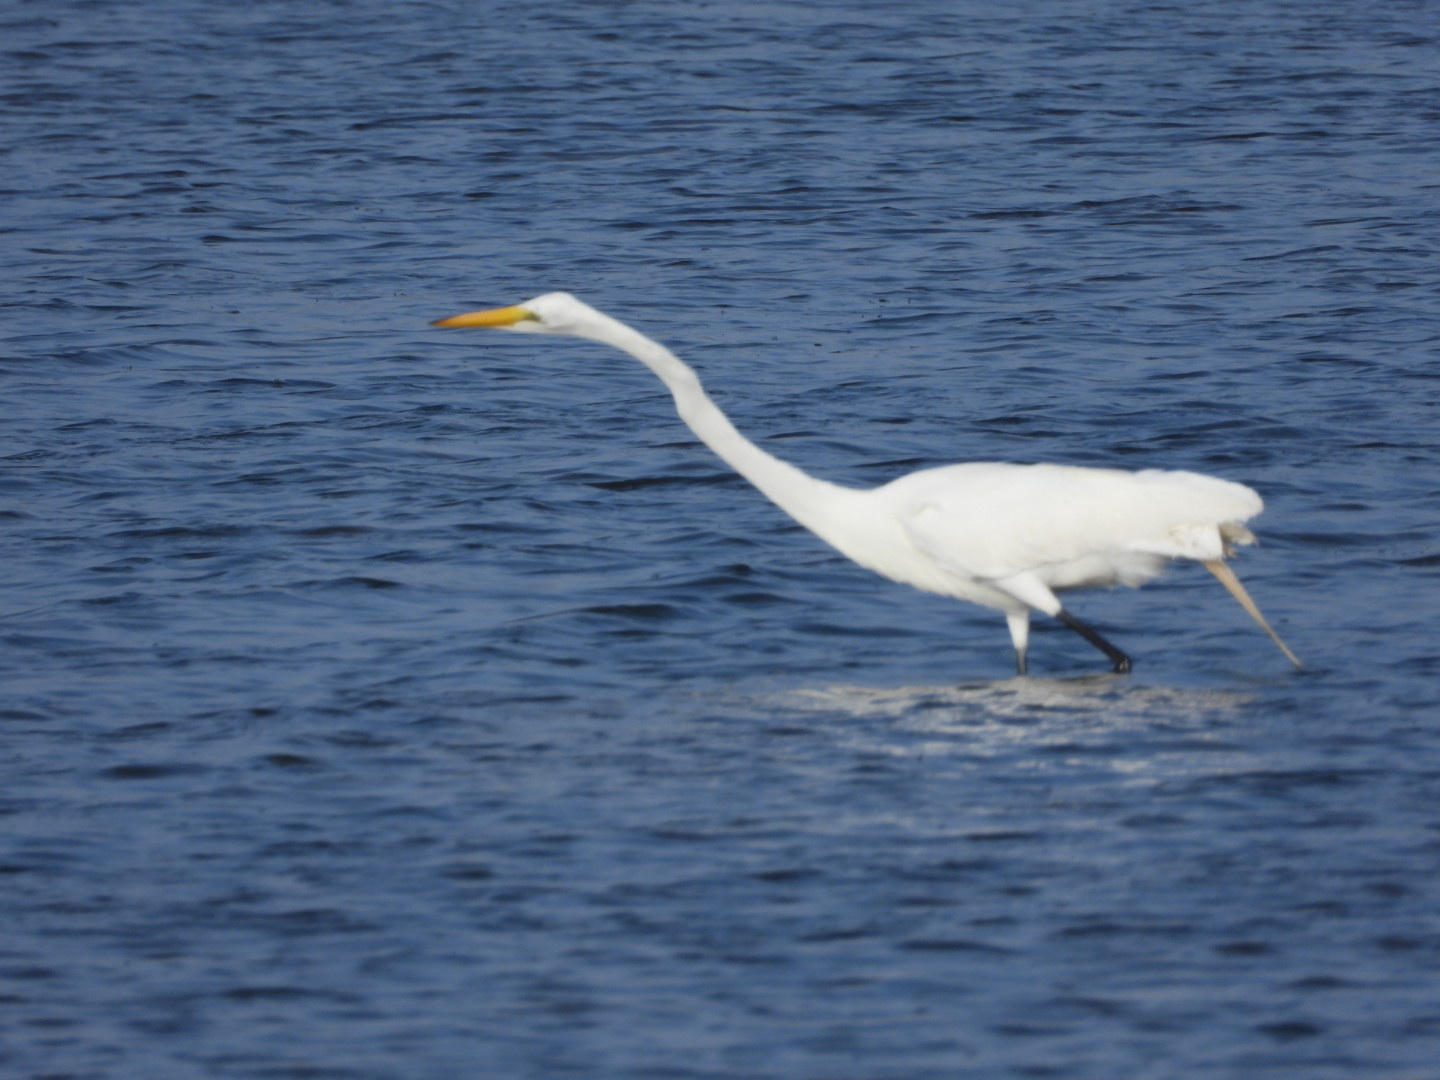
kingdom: Animalia
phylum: Chordata
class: Aves
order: Pelecaniformes
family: Ardeidae
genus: Ardea
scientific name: Ardea alba
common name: Great egret
